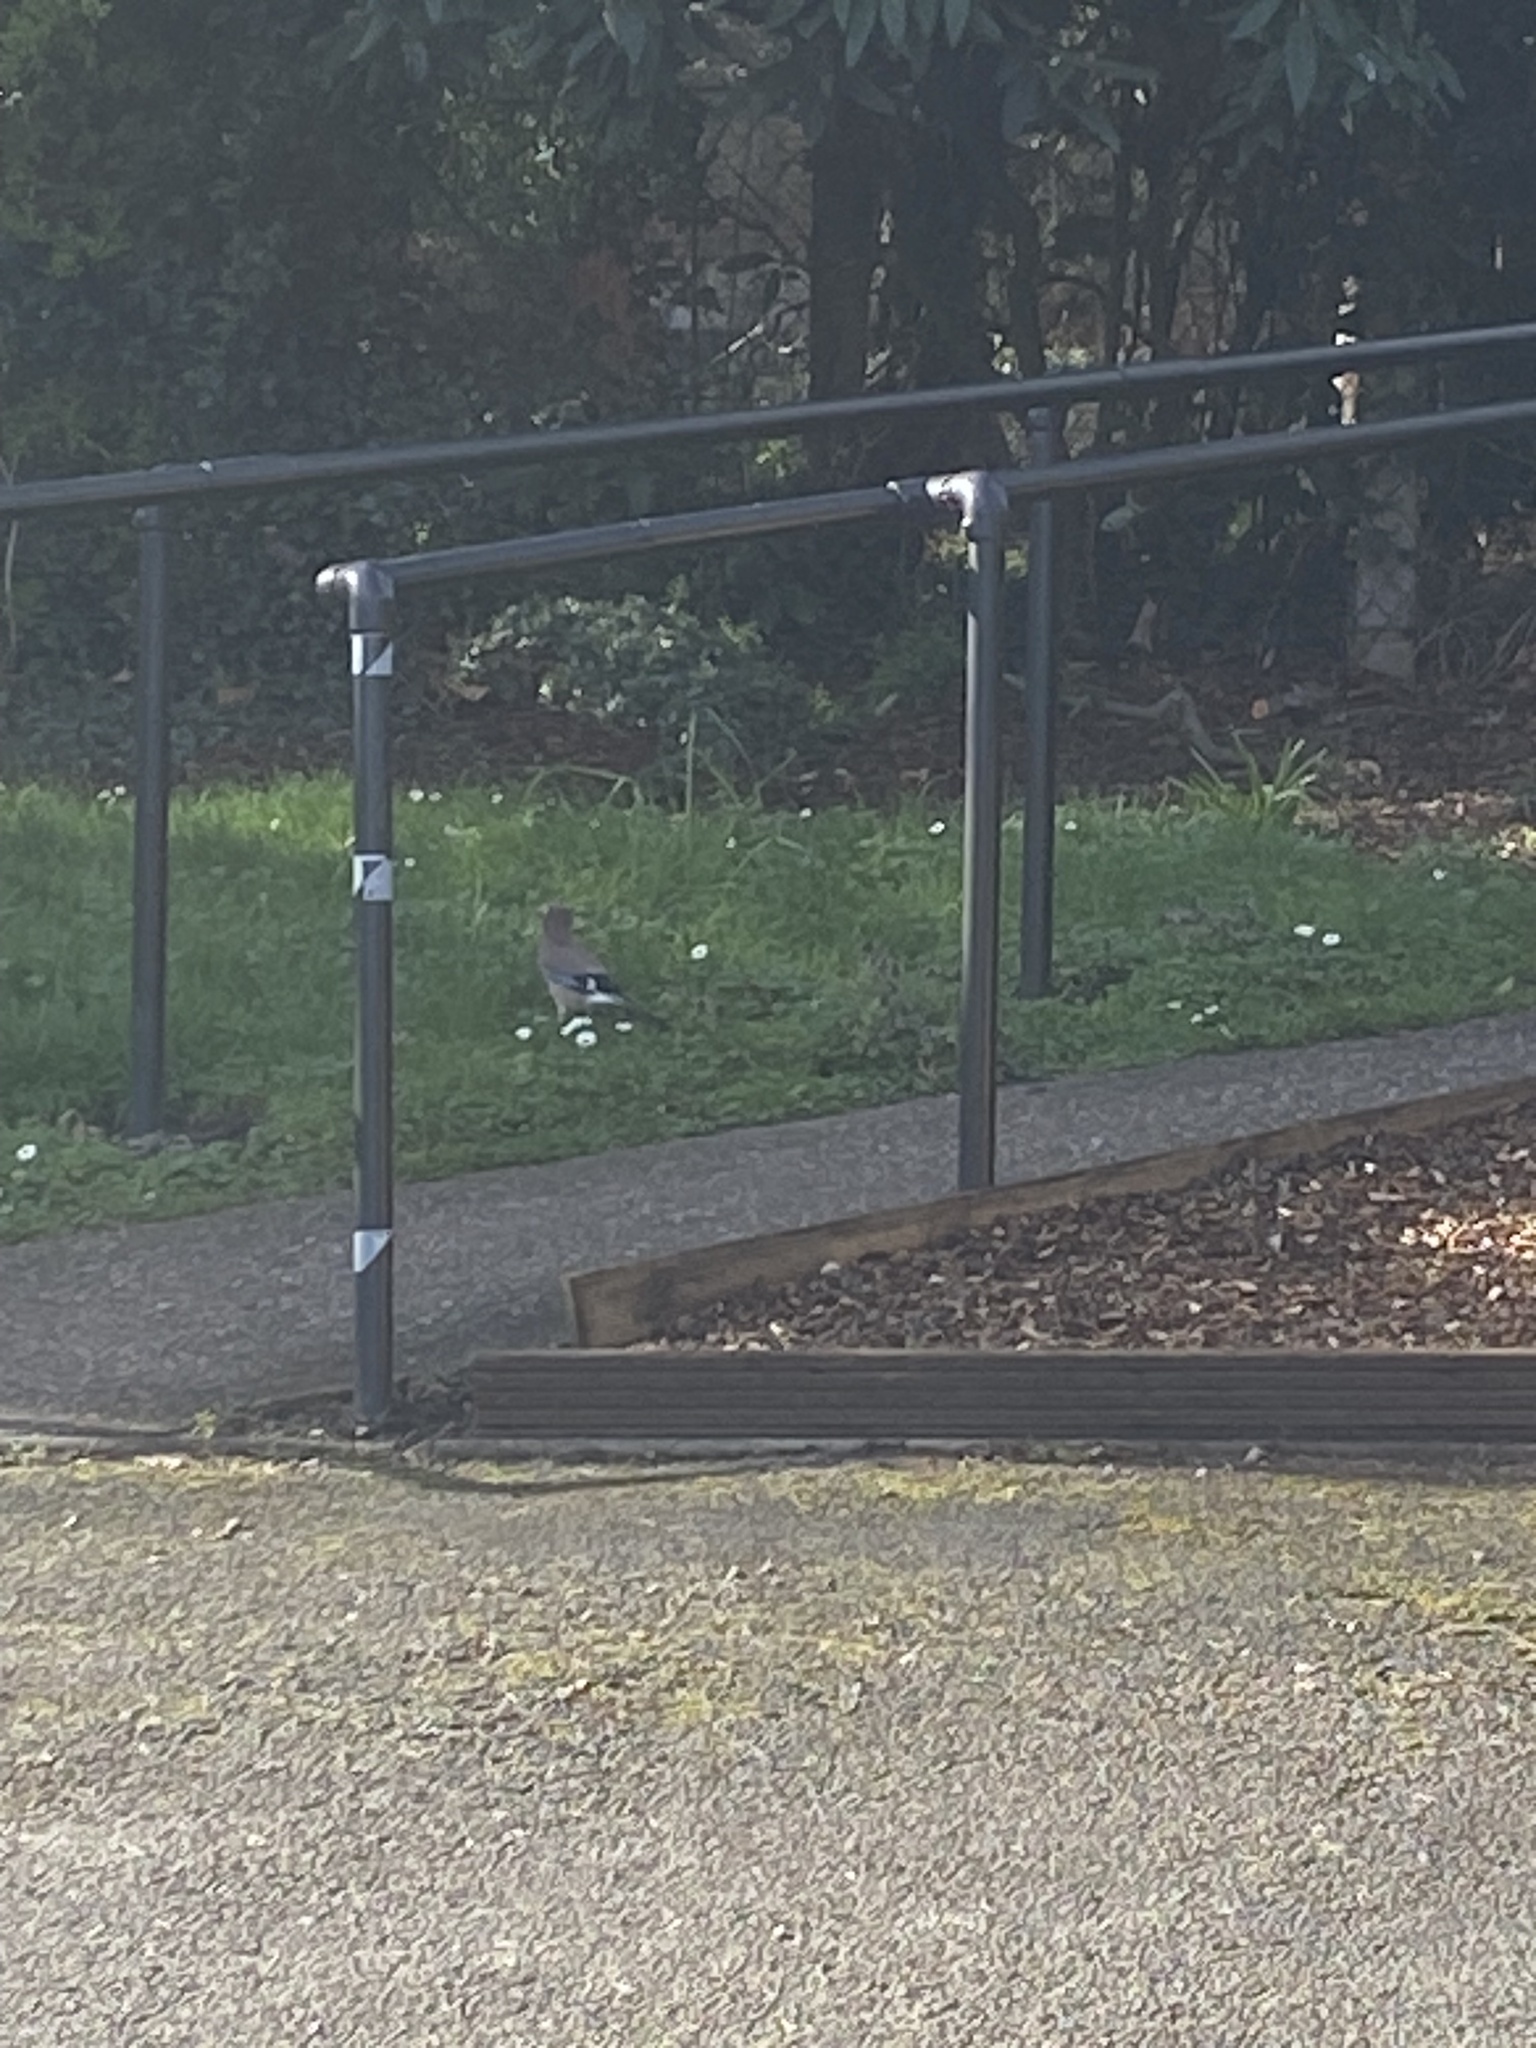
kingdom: Animalia
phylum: Chordata
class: Aves
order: Passeriformes
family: Corvidae
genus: Garrulus
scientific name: Garrulus glandarius
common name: Eurasian jay
